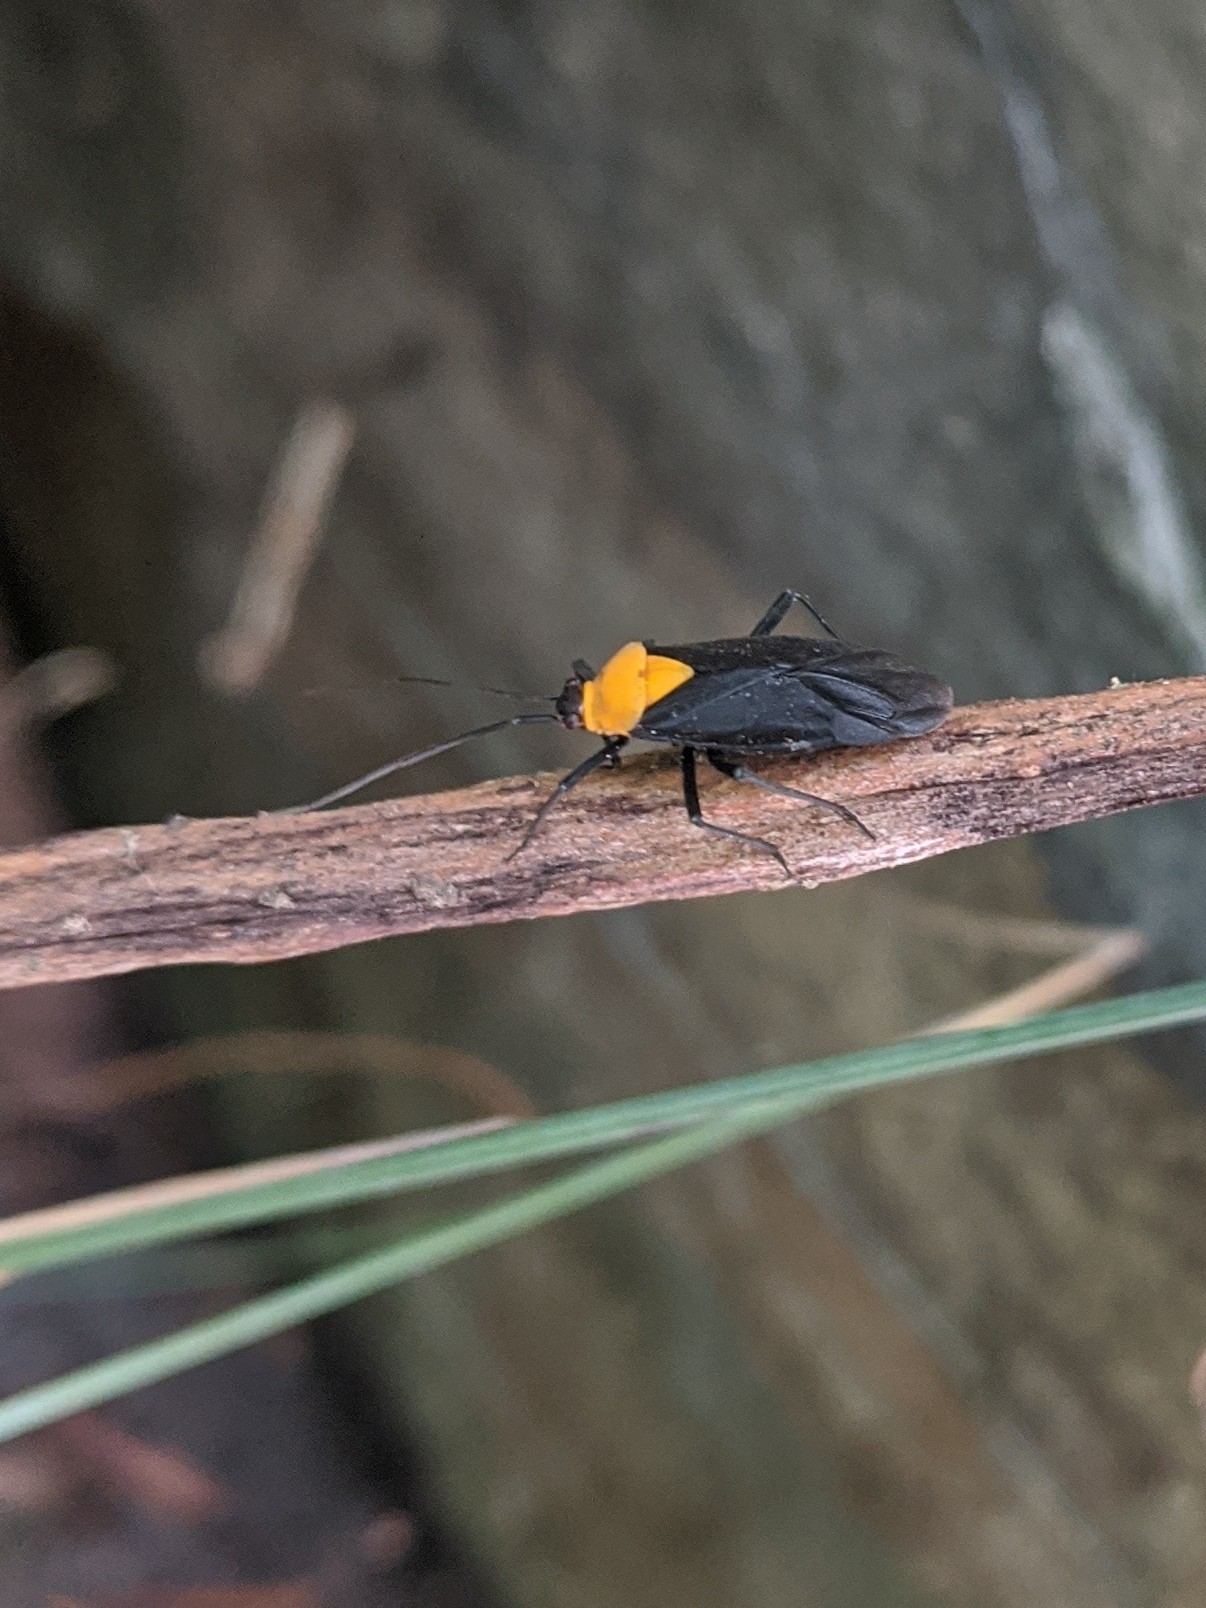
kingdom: Animalia
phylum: Arthropoda
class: Insecta
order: Hemiptera
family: Miridae
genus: Prepops
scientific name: Prepops insitivus
